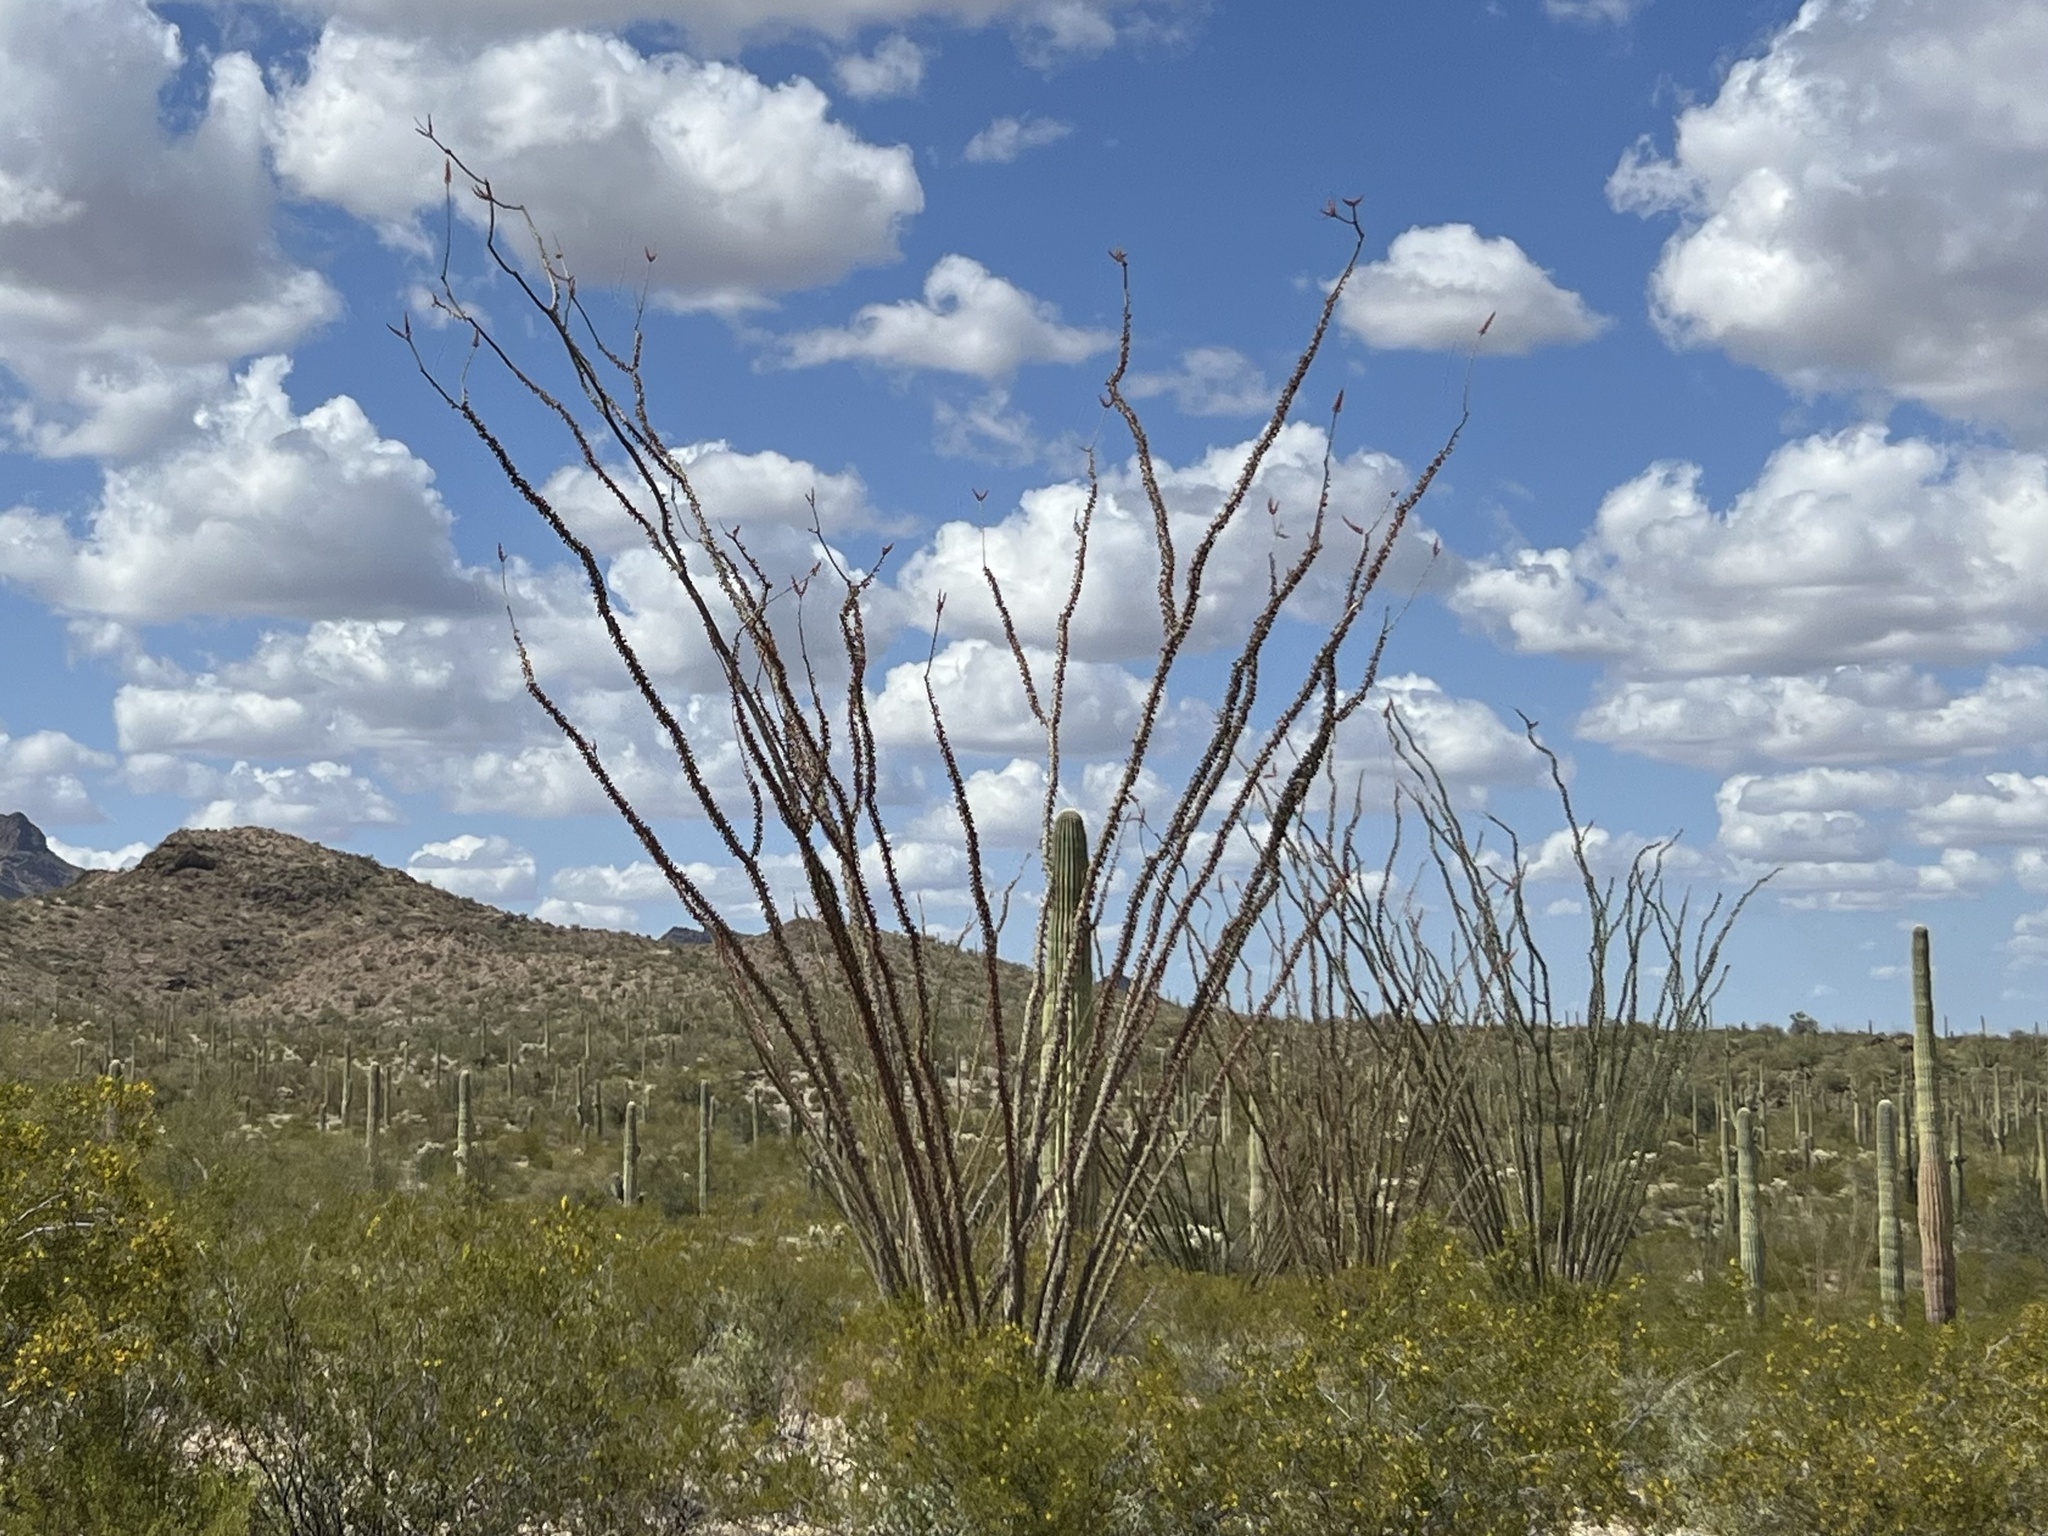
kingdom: Plantae
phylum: Tracheophyta
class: Magnoliopsida
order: Ericales
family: Fouquieriaceae
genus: Fouquieria
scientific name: Fouquieria splendens
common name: Vine-cactus
